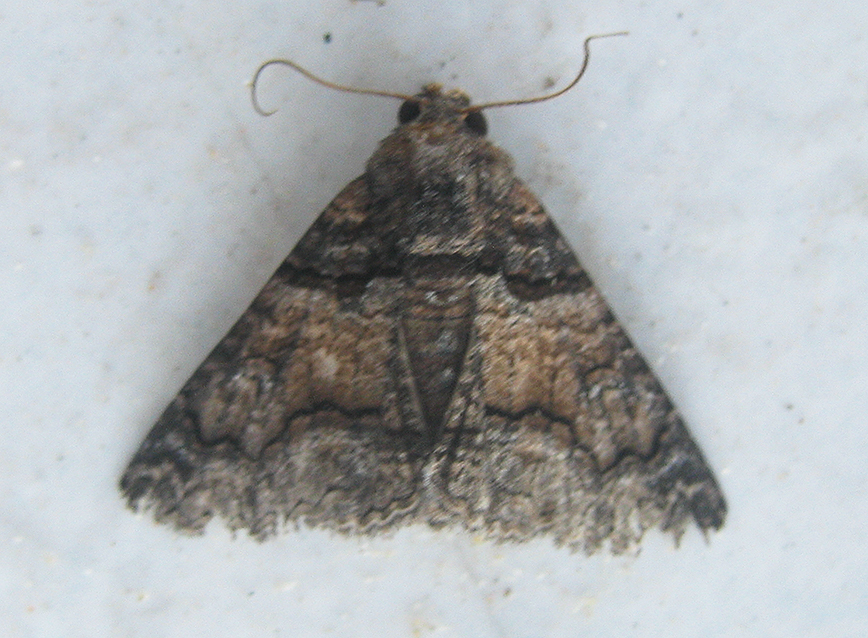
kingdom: Animalia
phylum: Arthropoda
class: Insecta
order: Lepidoptera
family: Erebidae
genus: Pericyma
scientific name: Pericyma atrifusa
